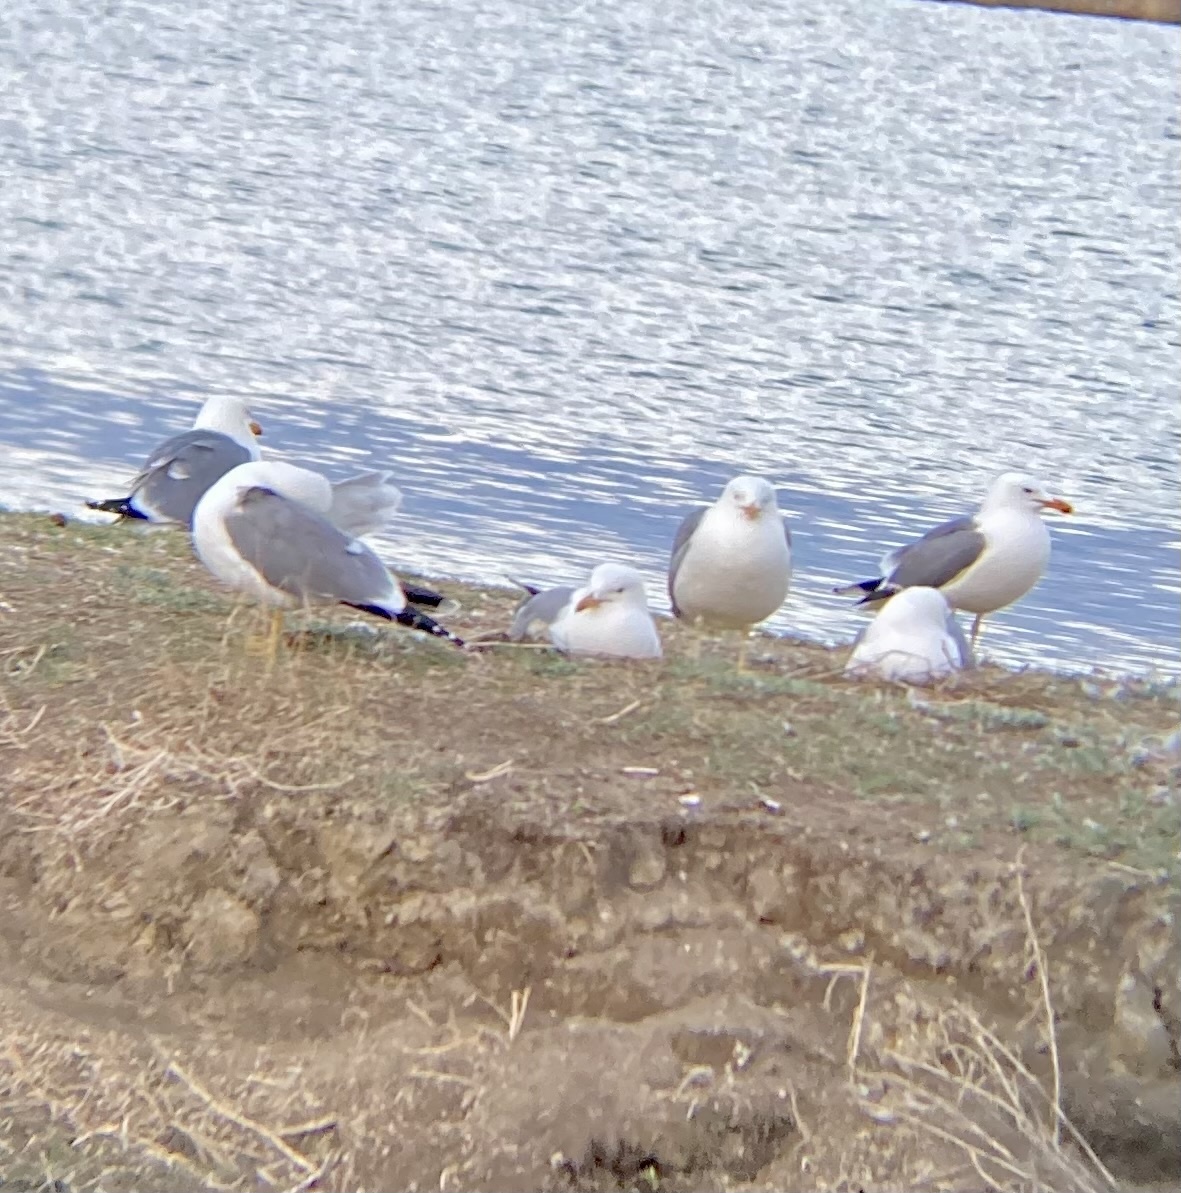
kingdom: Animalia
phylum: Chordata
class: Aves
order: Charadriiformes
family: Laridae
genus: Larus
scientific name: Larus californicus
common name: California gull
